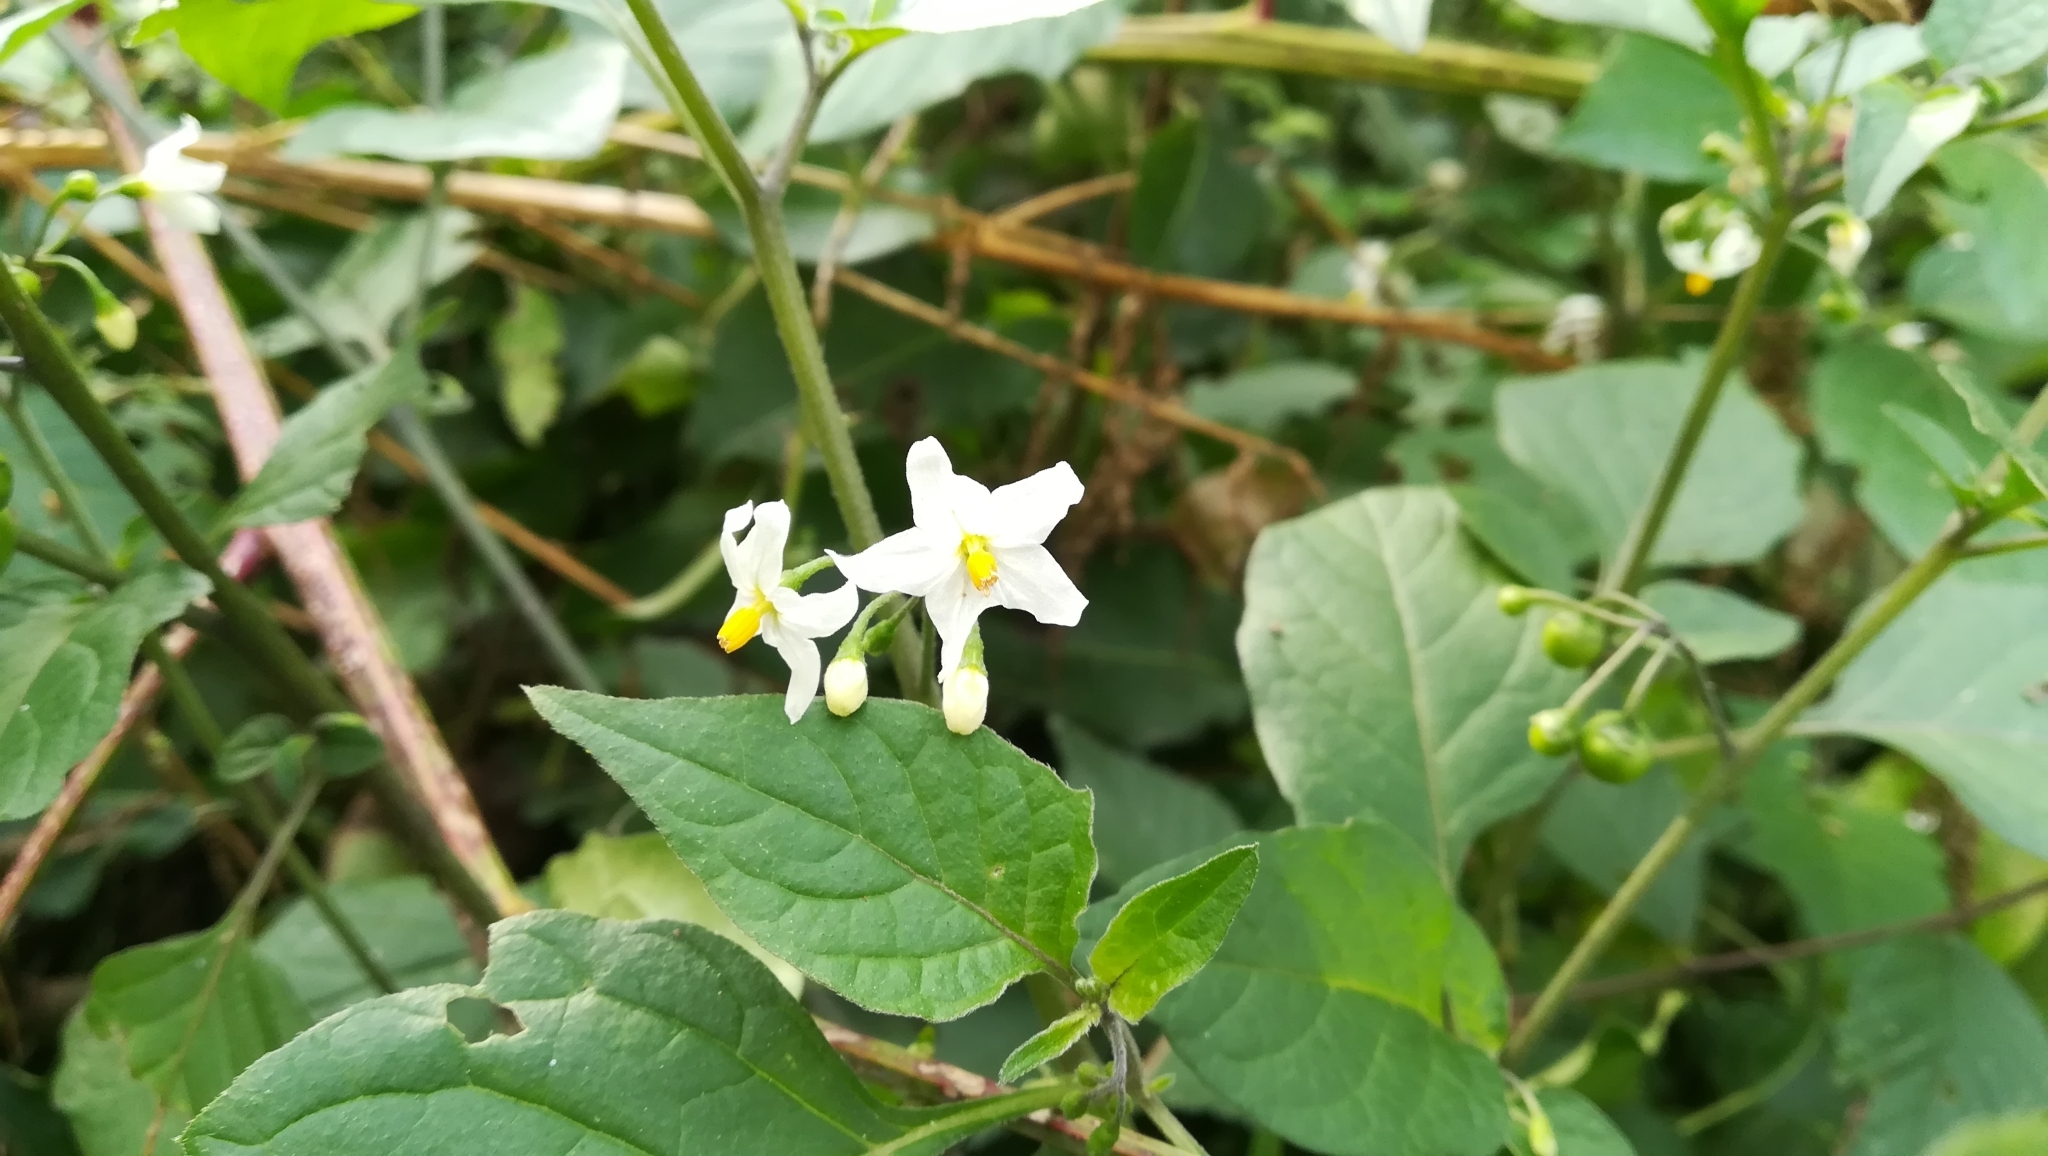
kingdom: Plantae
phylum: Tracheophyta
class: Magnoliopsida
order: Solanales
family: Solanaceae
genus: Solanum
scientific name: Solanum nigrum
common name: Black nightshade
